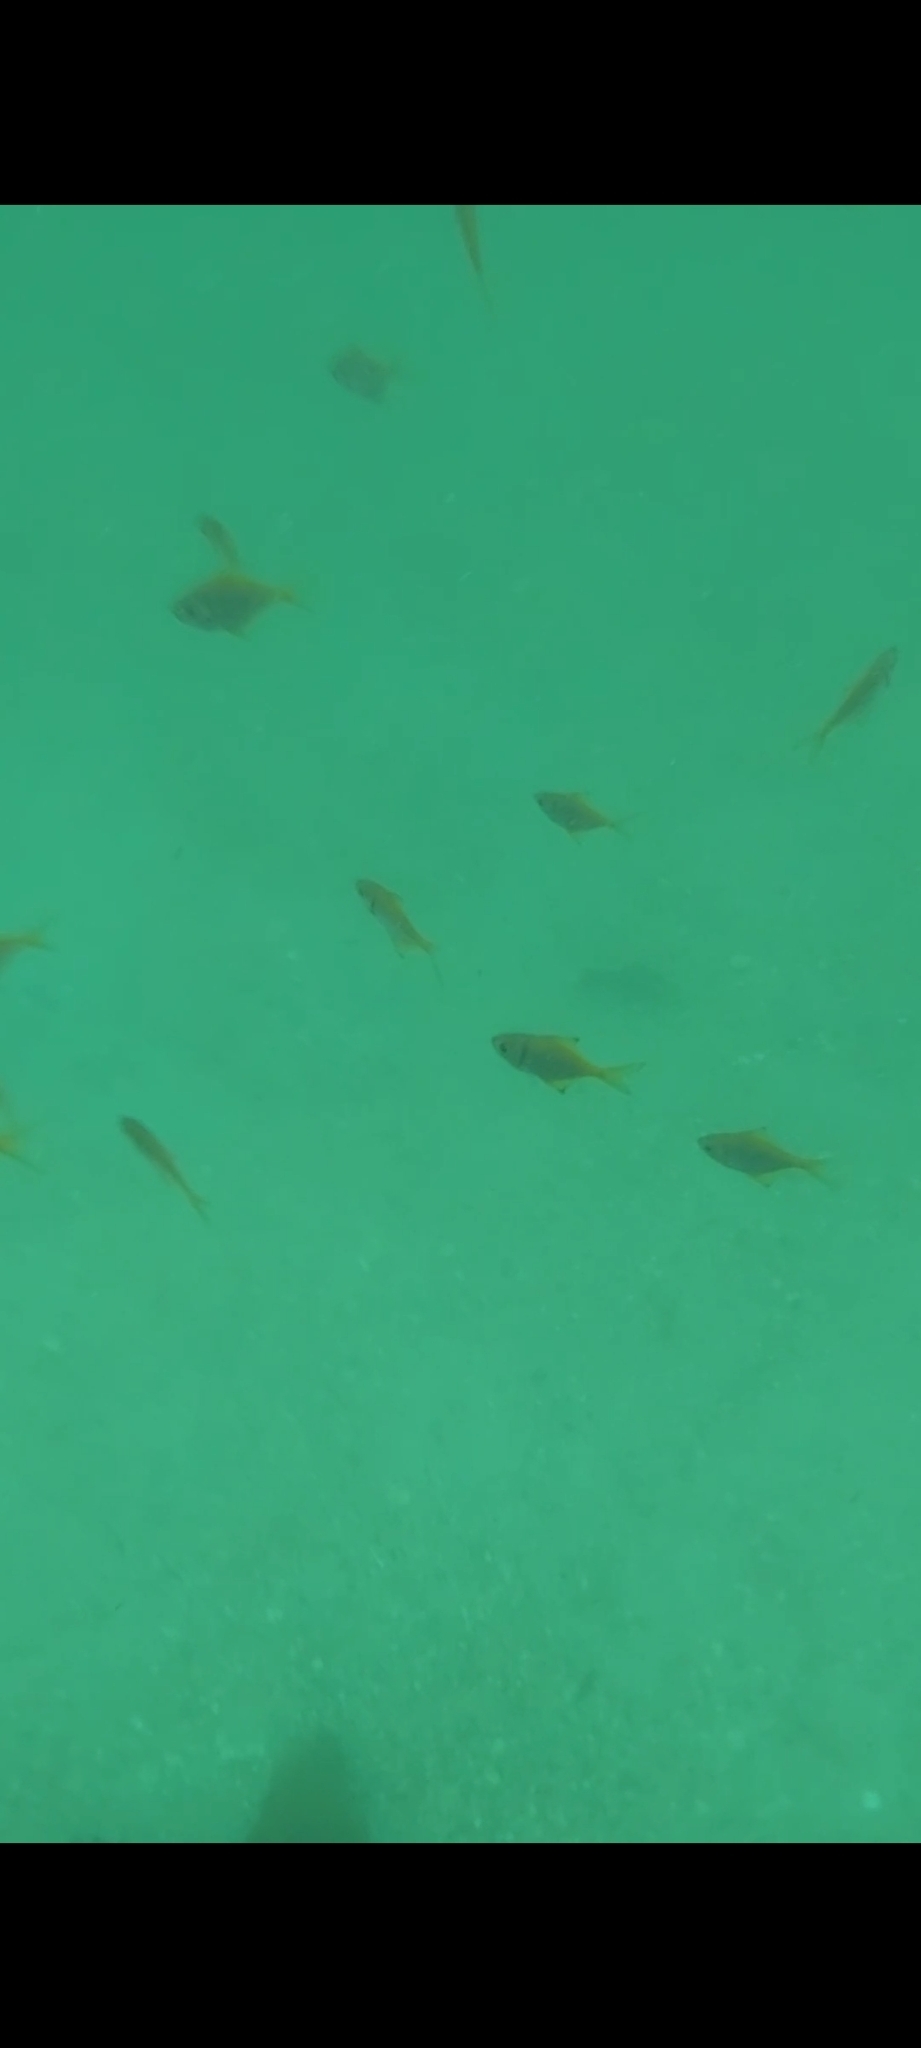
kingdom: Animalia
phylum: Chordata
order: Perciformes
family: Monodactylidae
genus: Schuettea
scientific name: Schuettea scalaripinnis
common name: Eastern pomfred
